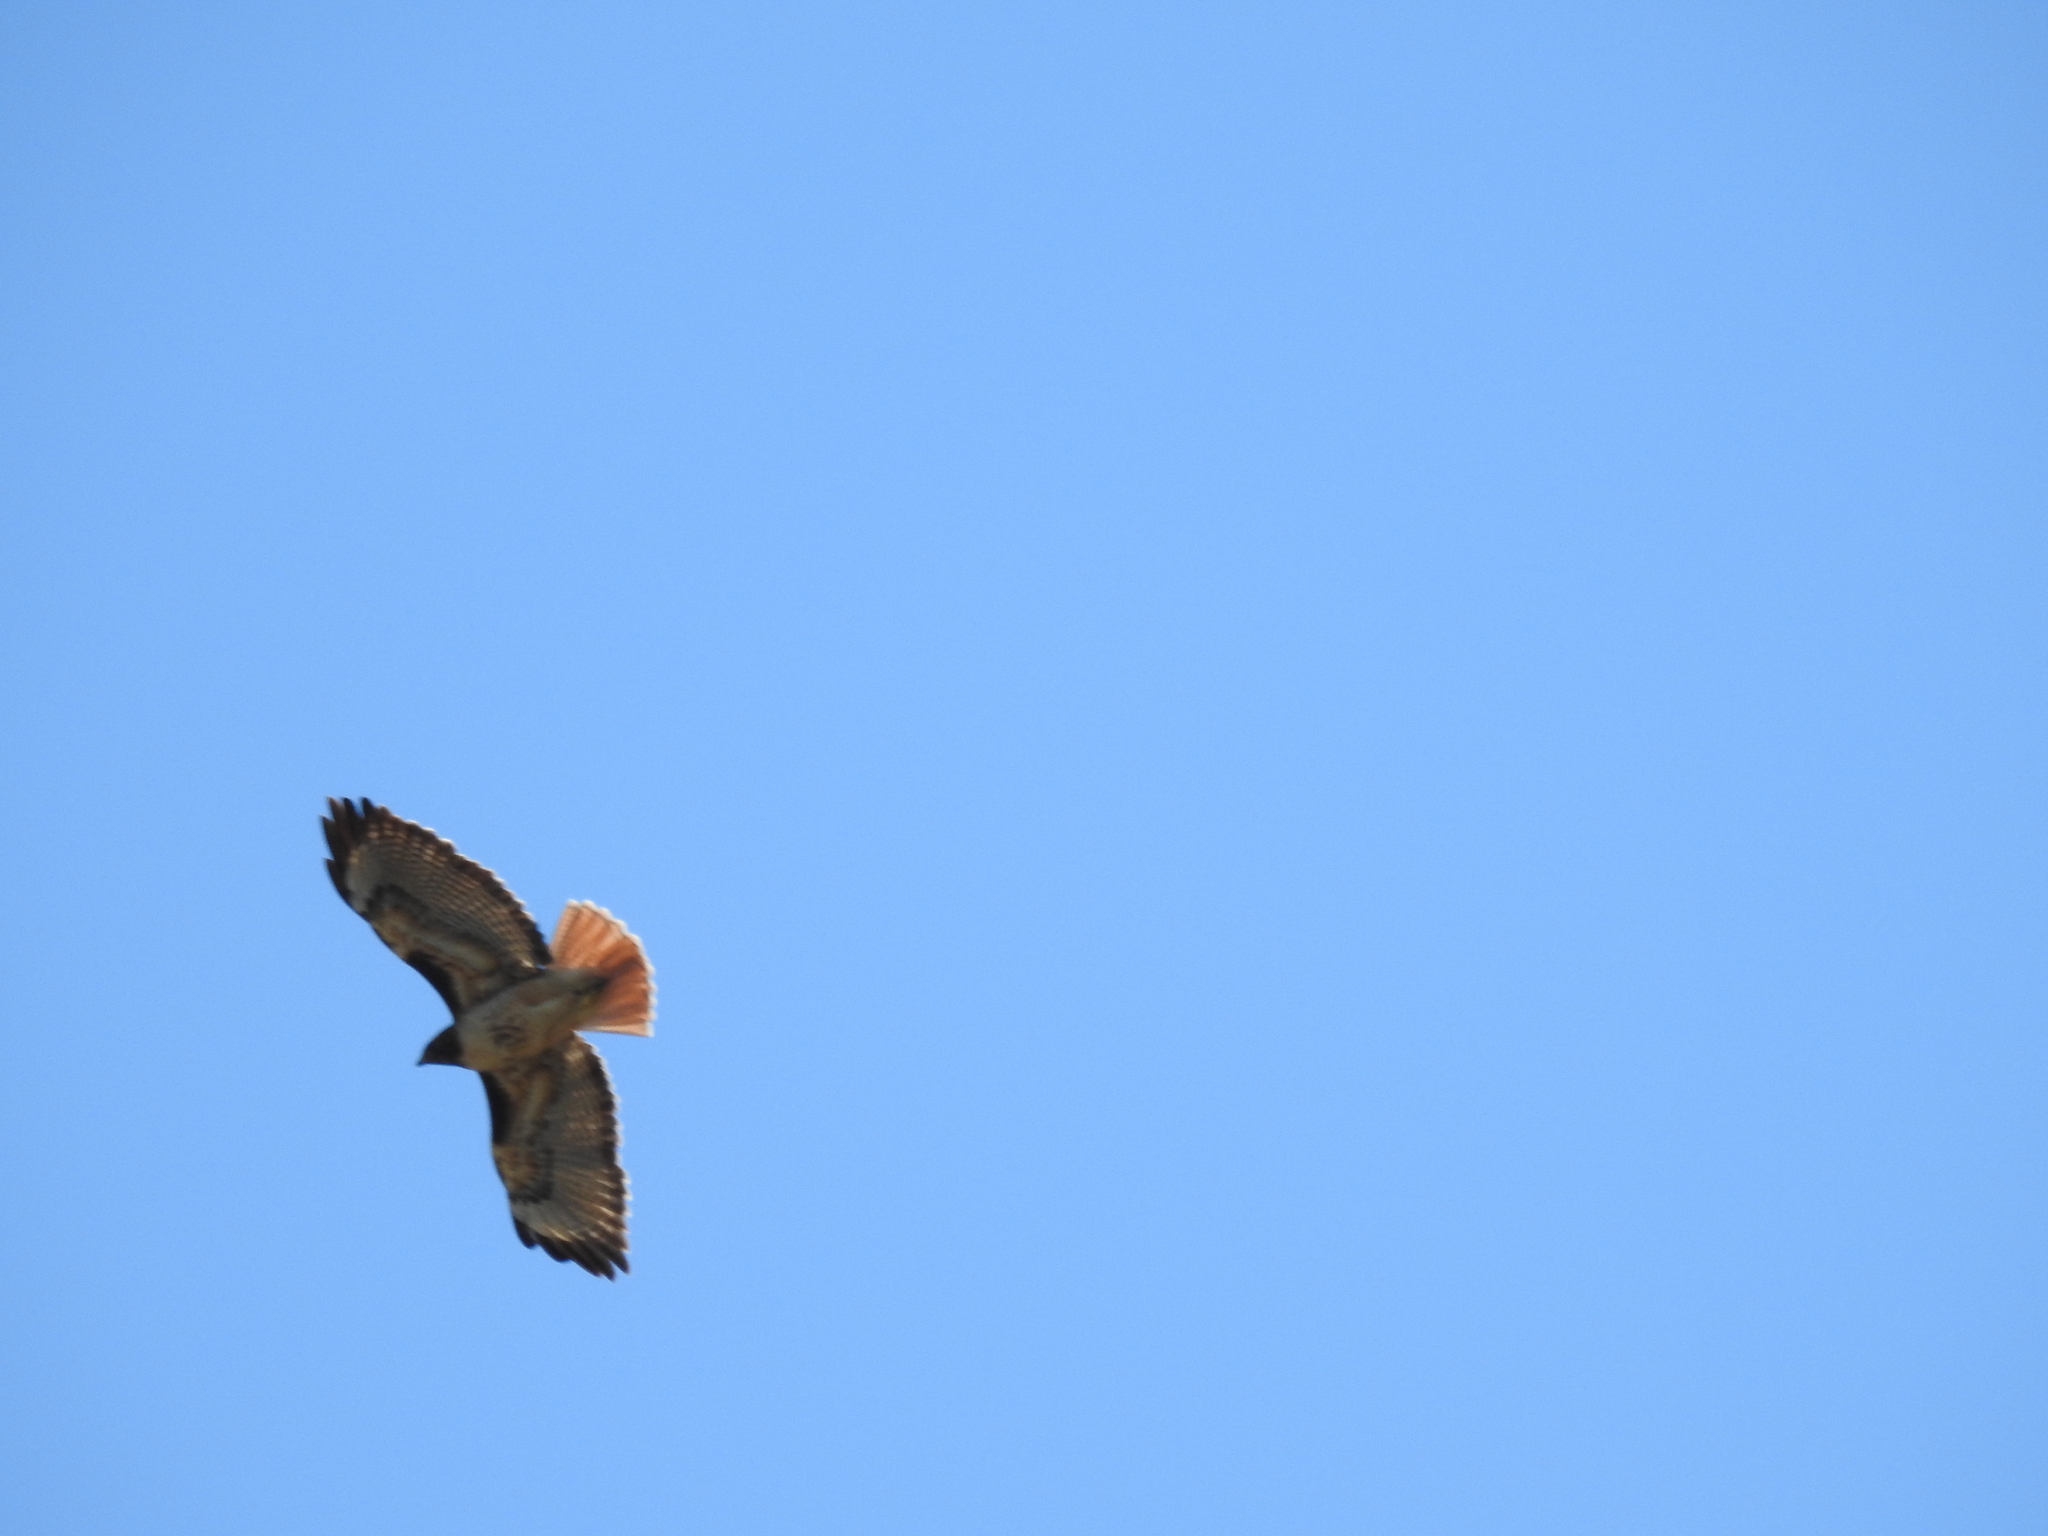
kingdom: Animalia
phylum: Chordata
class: Aves
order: Accipitriformes
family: Accipitridae
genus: Buteo
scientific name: Buteo jamaicensis
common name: Red-tailed hawk
